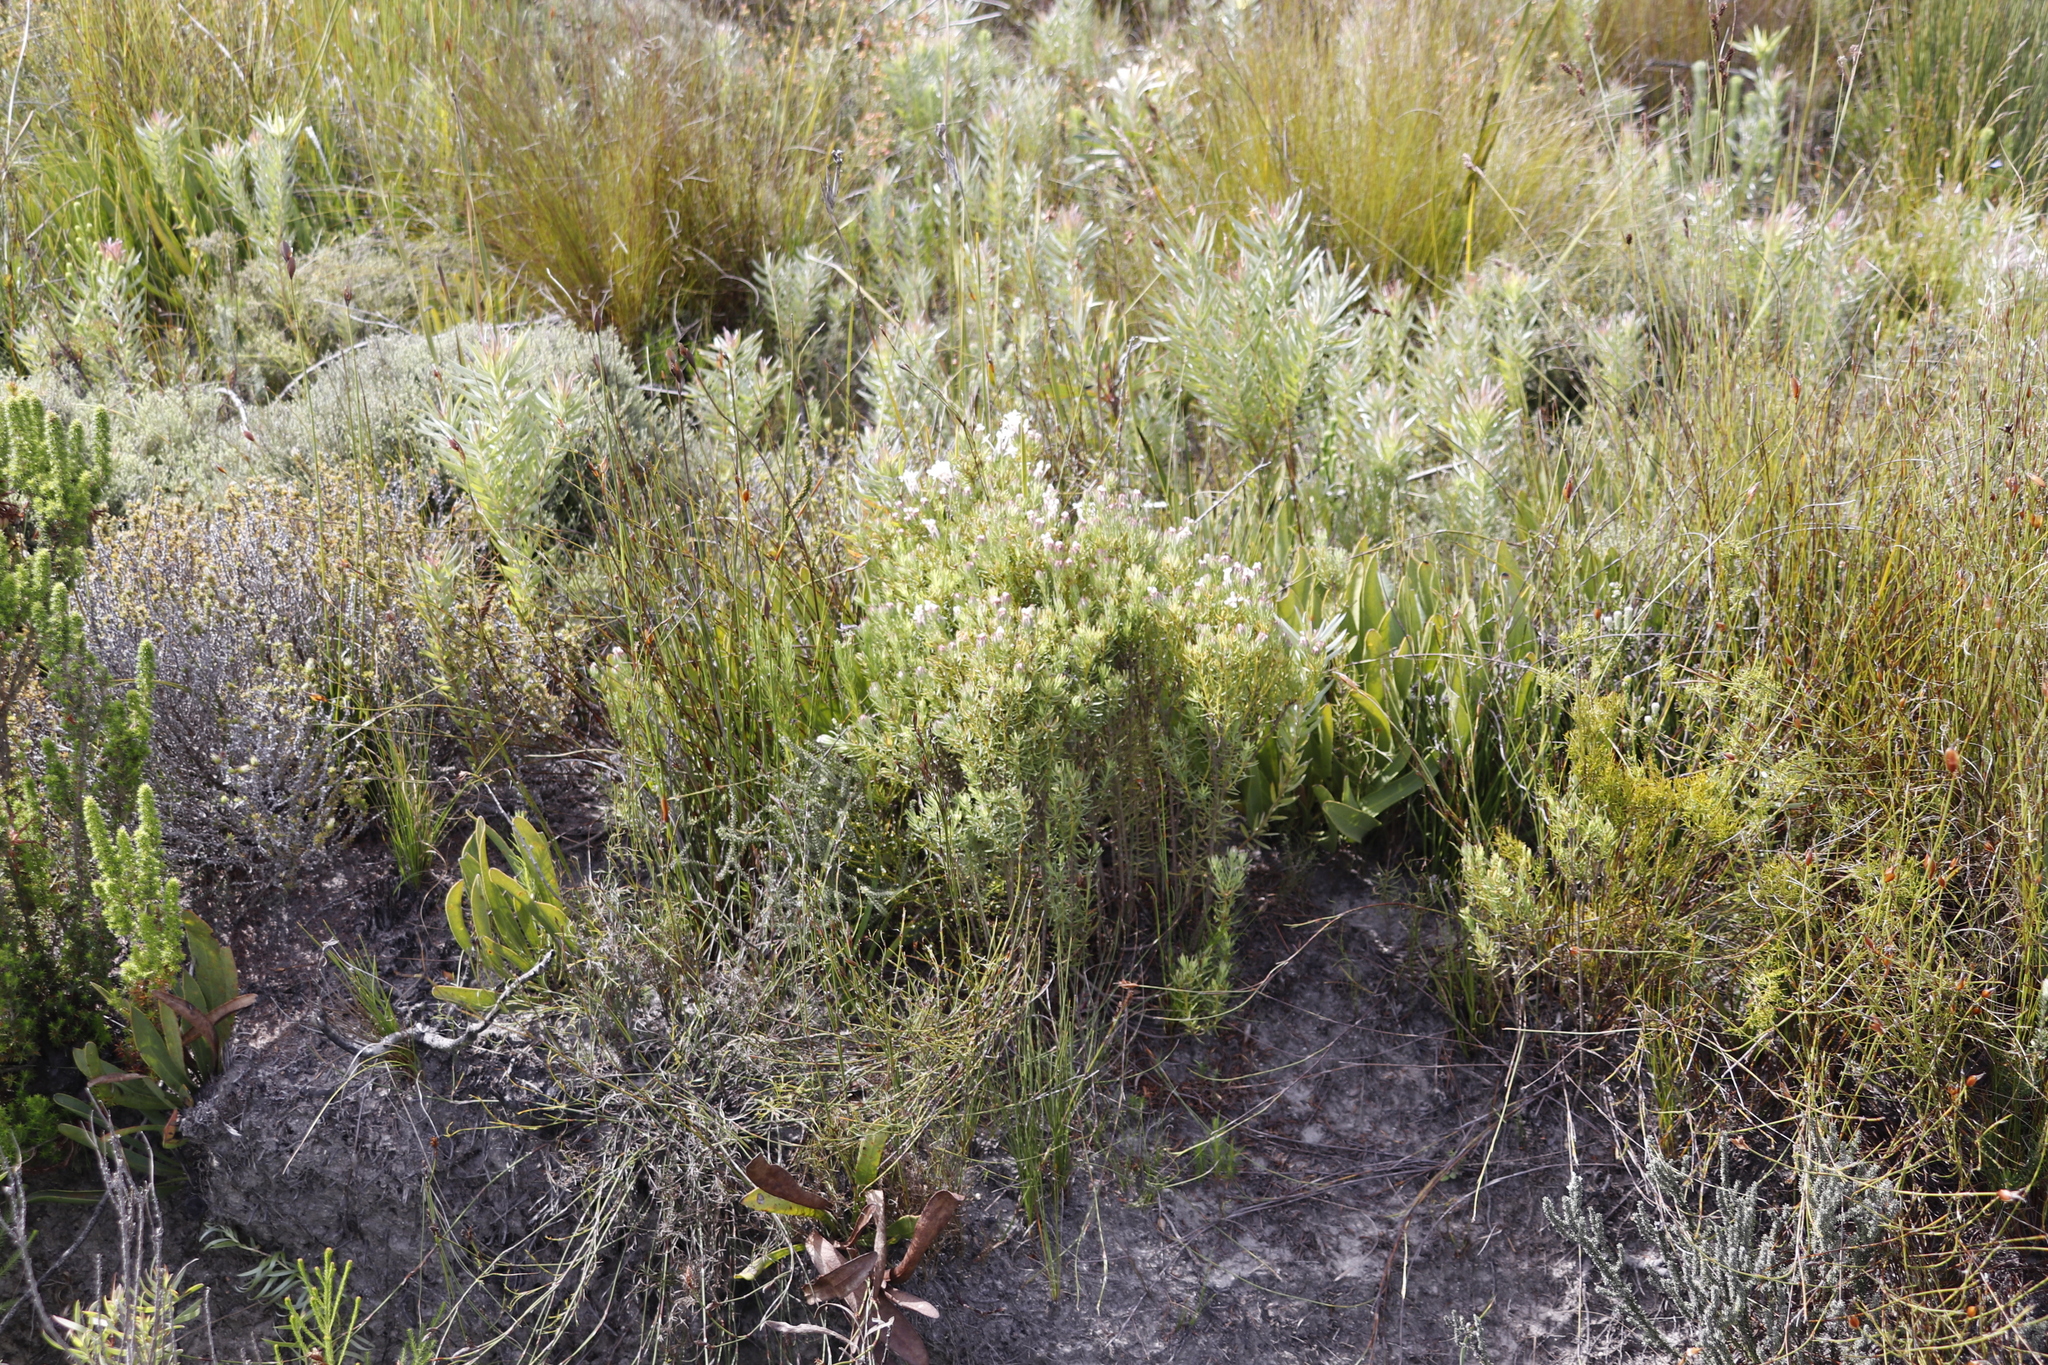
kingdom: Plantae
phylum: Tracheophyta
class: Magnoliopsida
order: Malvales
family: Thymelaeaceae
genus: Gnidia
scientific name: Gnidia pinifolia
